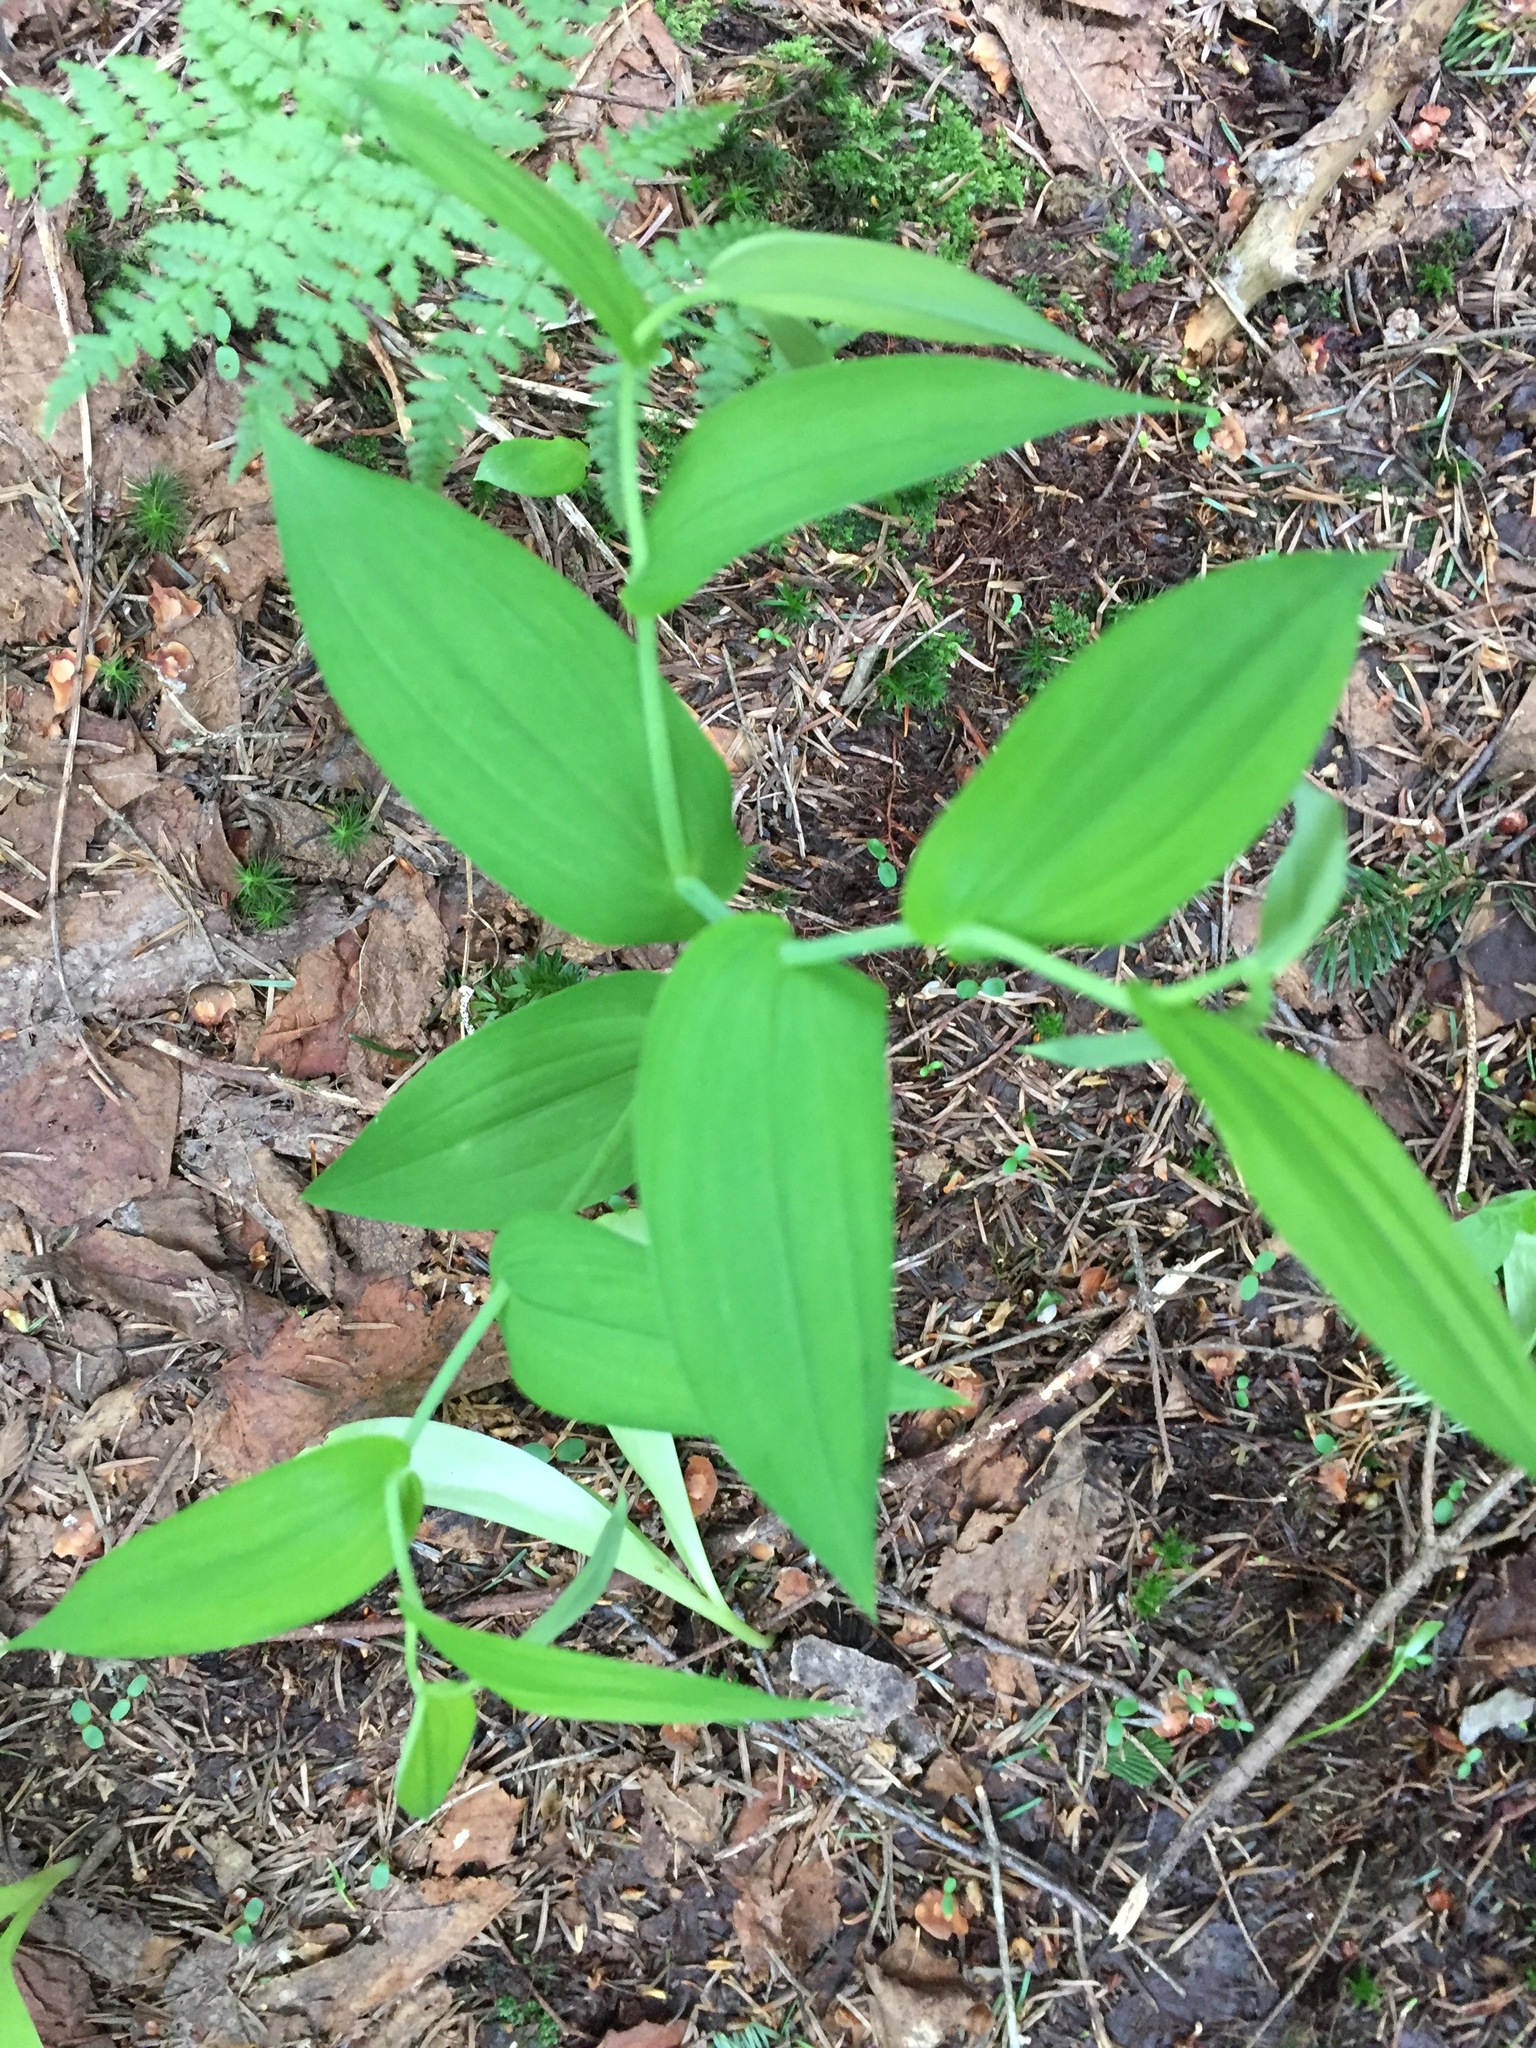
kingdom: Plantae
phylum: Tracheophyta
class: Liliopsida
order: Liliales
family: Liliaceae
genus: Streptopus
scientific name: Streptopus amplexifolius
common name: Clasp twisted stalk
